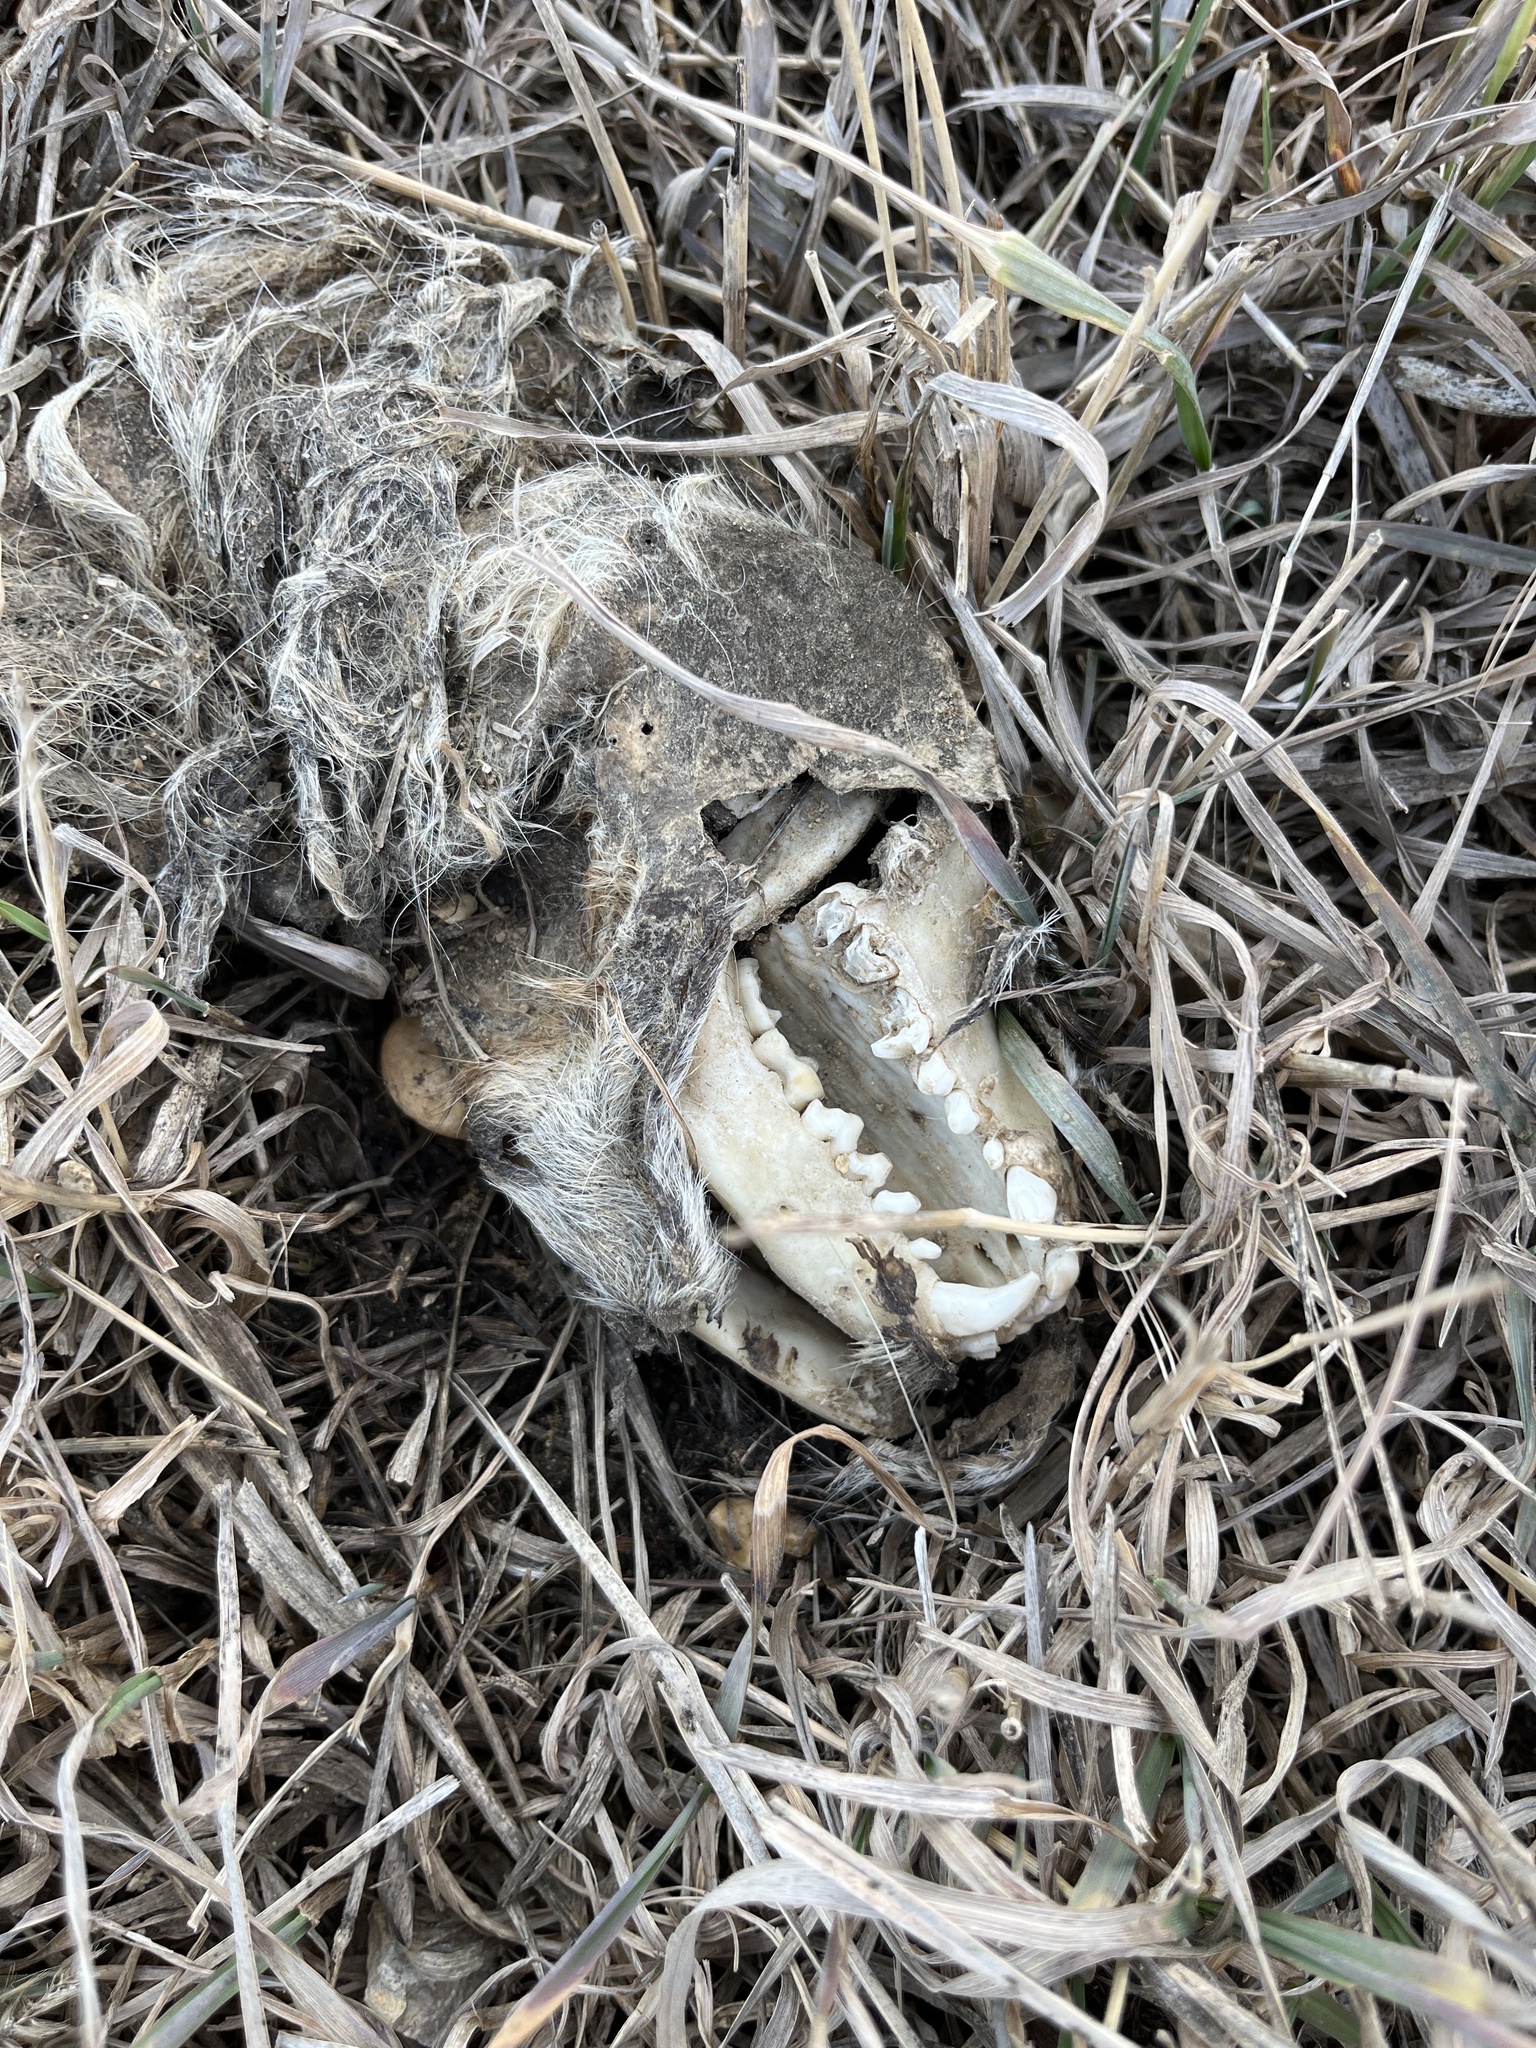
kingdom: Animalia
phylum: Chordata
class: Mammalia
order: Carnivora
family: Procyonidae
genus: Procyon
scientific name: Procyon lotor
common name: Raccoon
